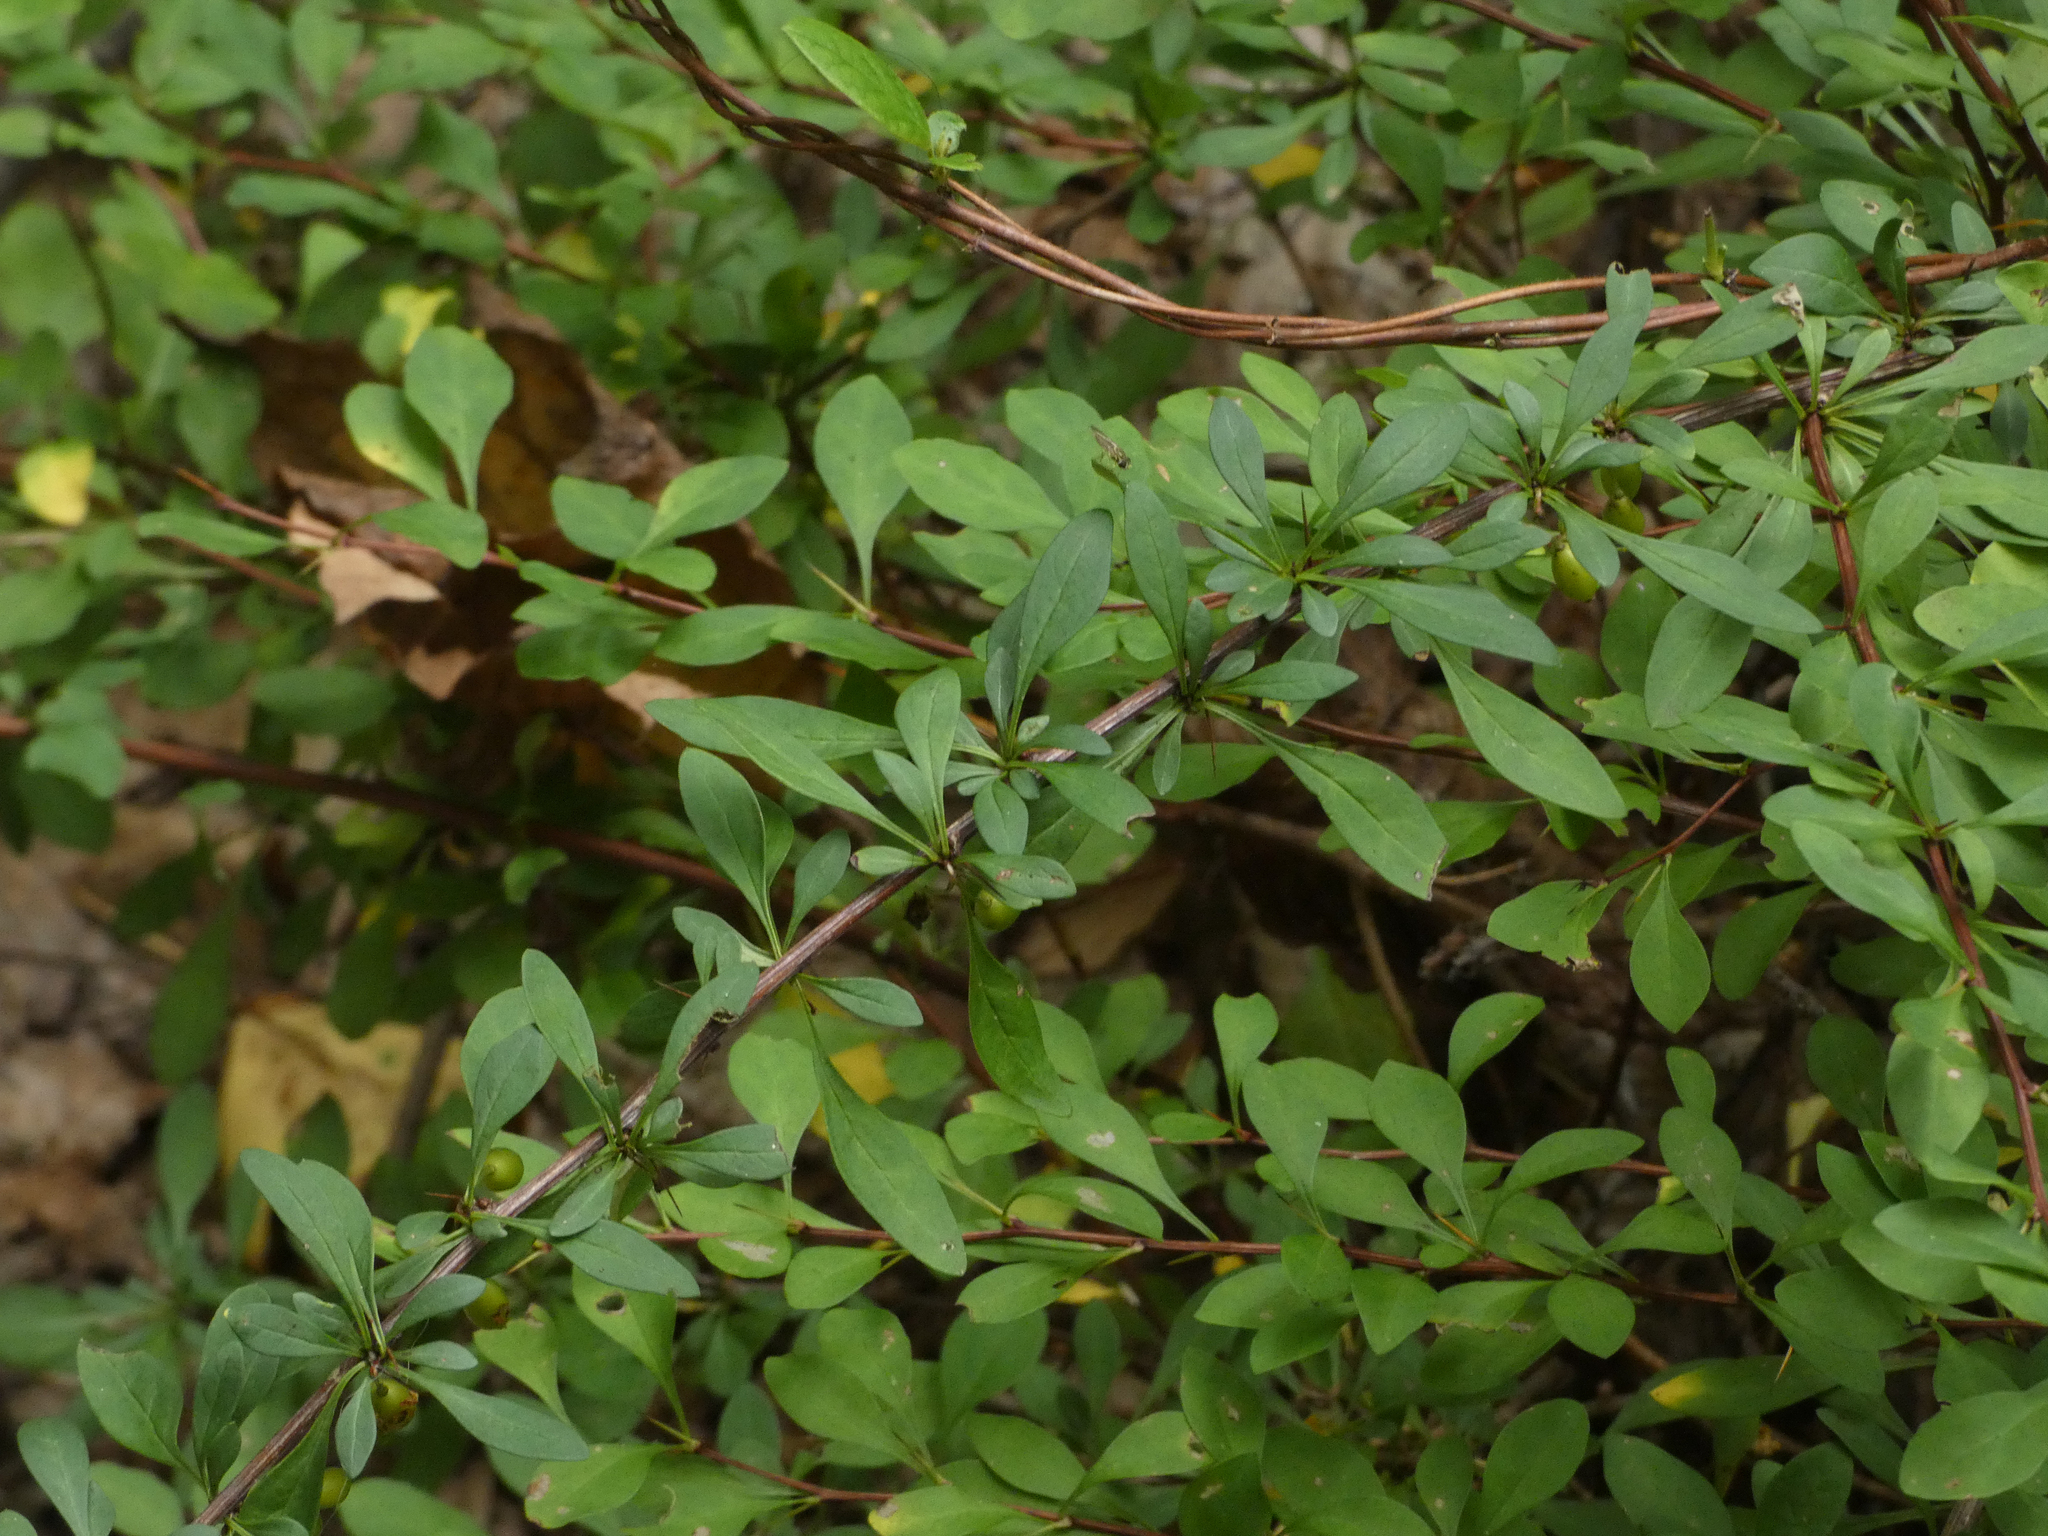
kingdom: Plantae
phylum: Tracheophyta
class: Magnoliopsida
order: Ranunculales
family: Berberidaceae
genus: Berberis
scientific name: Berberis thunbergii
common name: Japanese barberry
